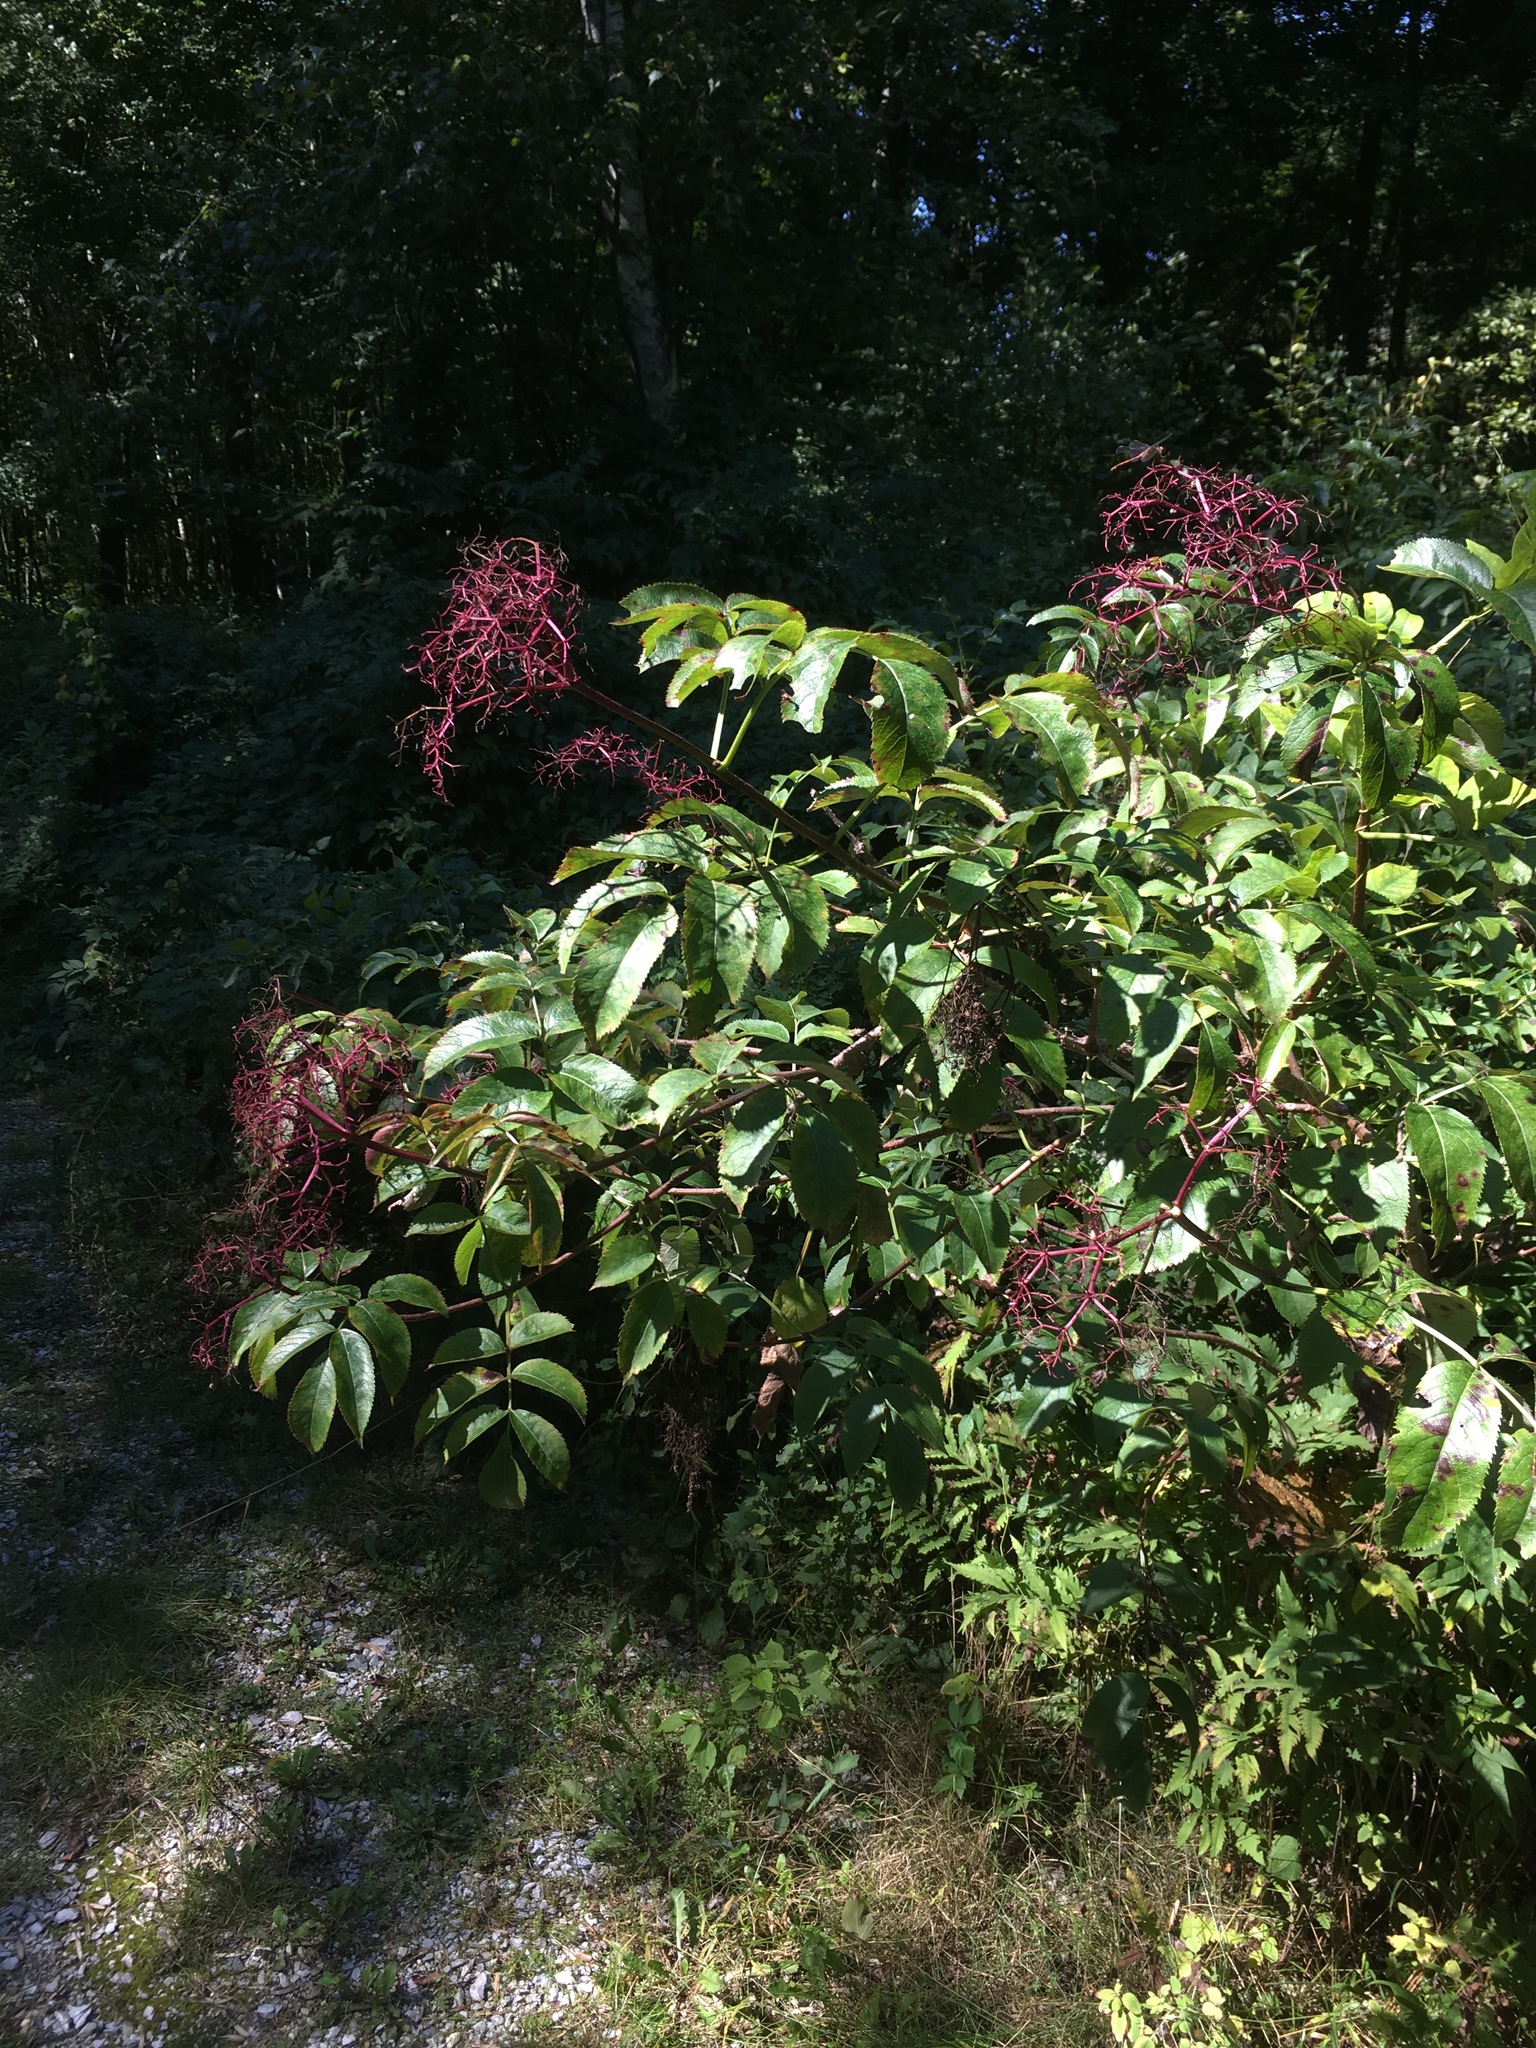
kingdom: Plantae
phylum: Tracheophyta
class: Magnoliopsida
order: Dipsacales
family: Viburnaceae
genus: Sambucus
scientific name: Sambucus canadensis
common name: American elder
